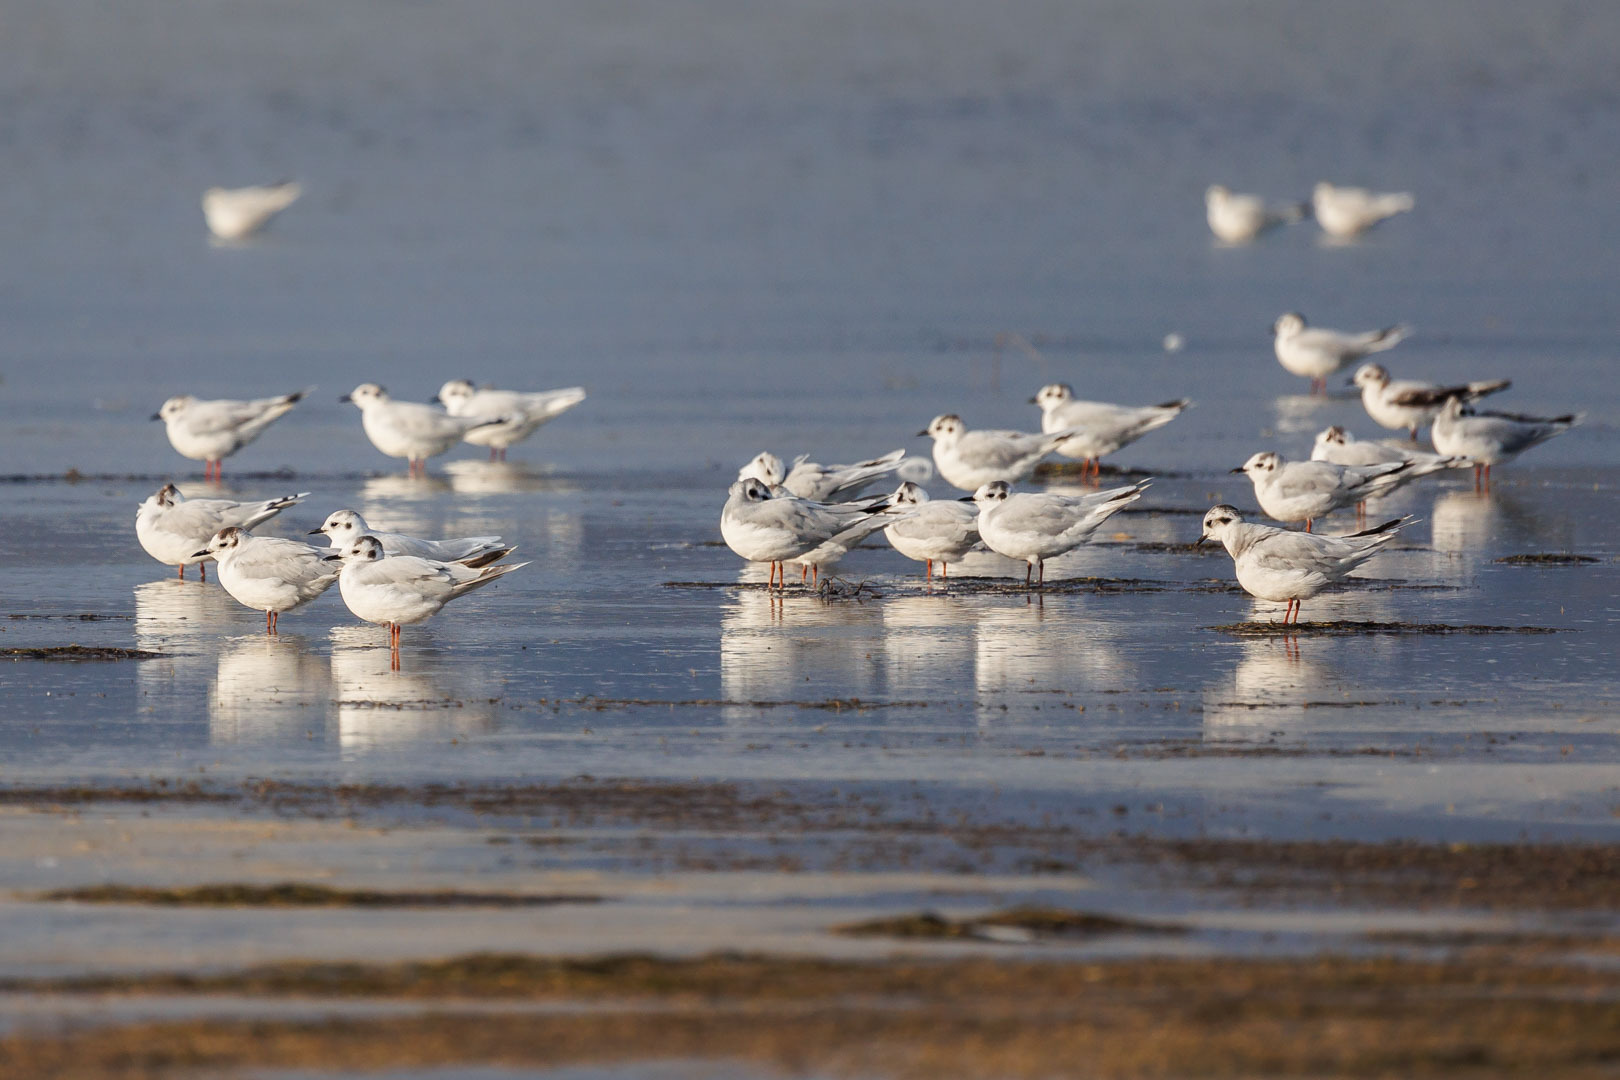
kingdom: Animalia
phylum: Chordata
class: Aves
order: Charadriiformes
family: Laridae
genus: Hydrocoloeus
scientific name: Hydrocoloeus minutus
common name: Little gull
